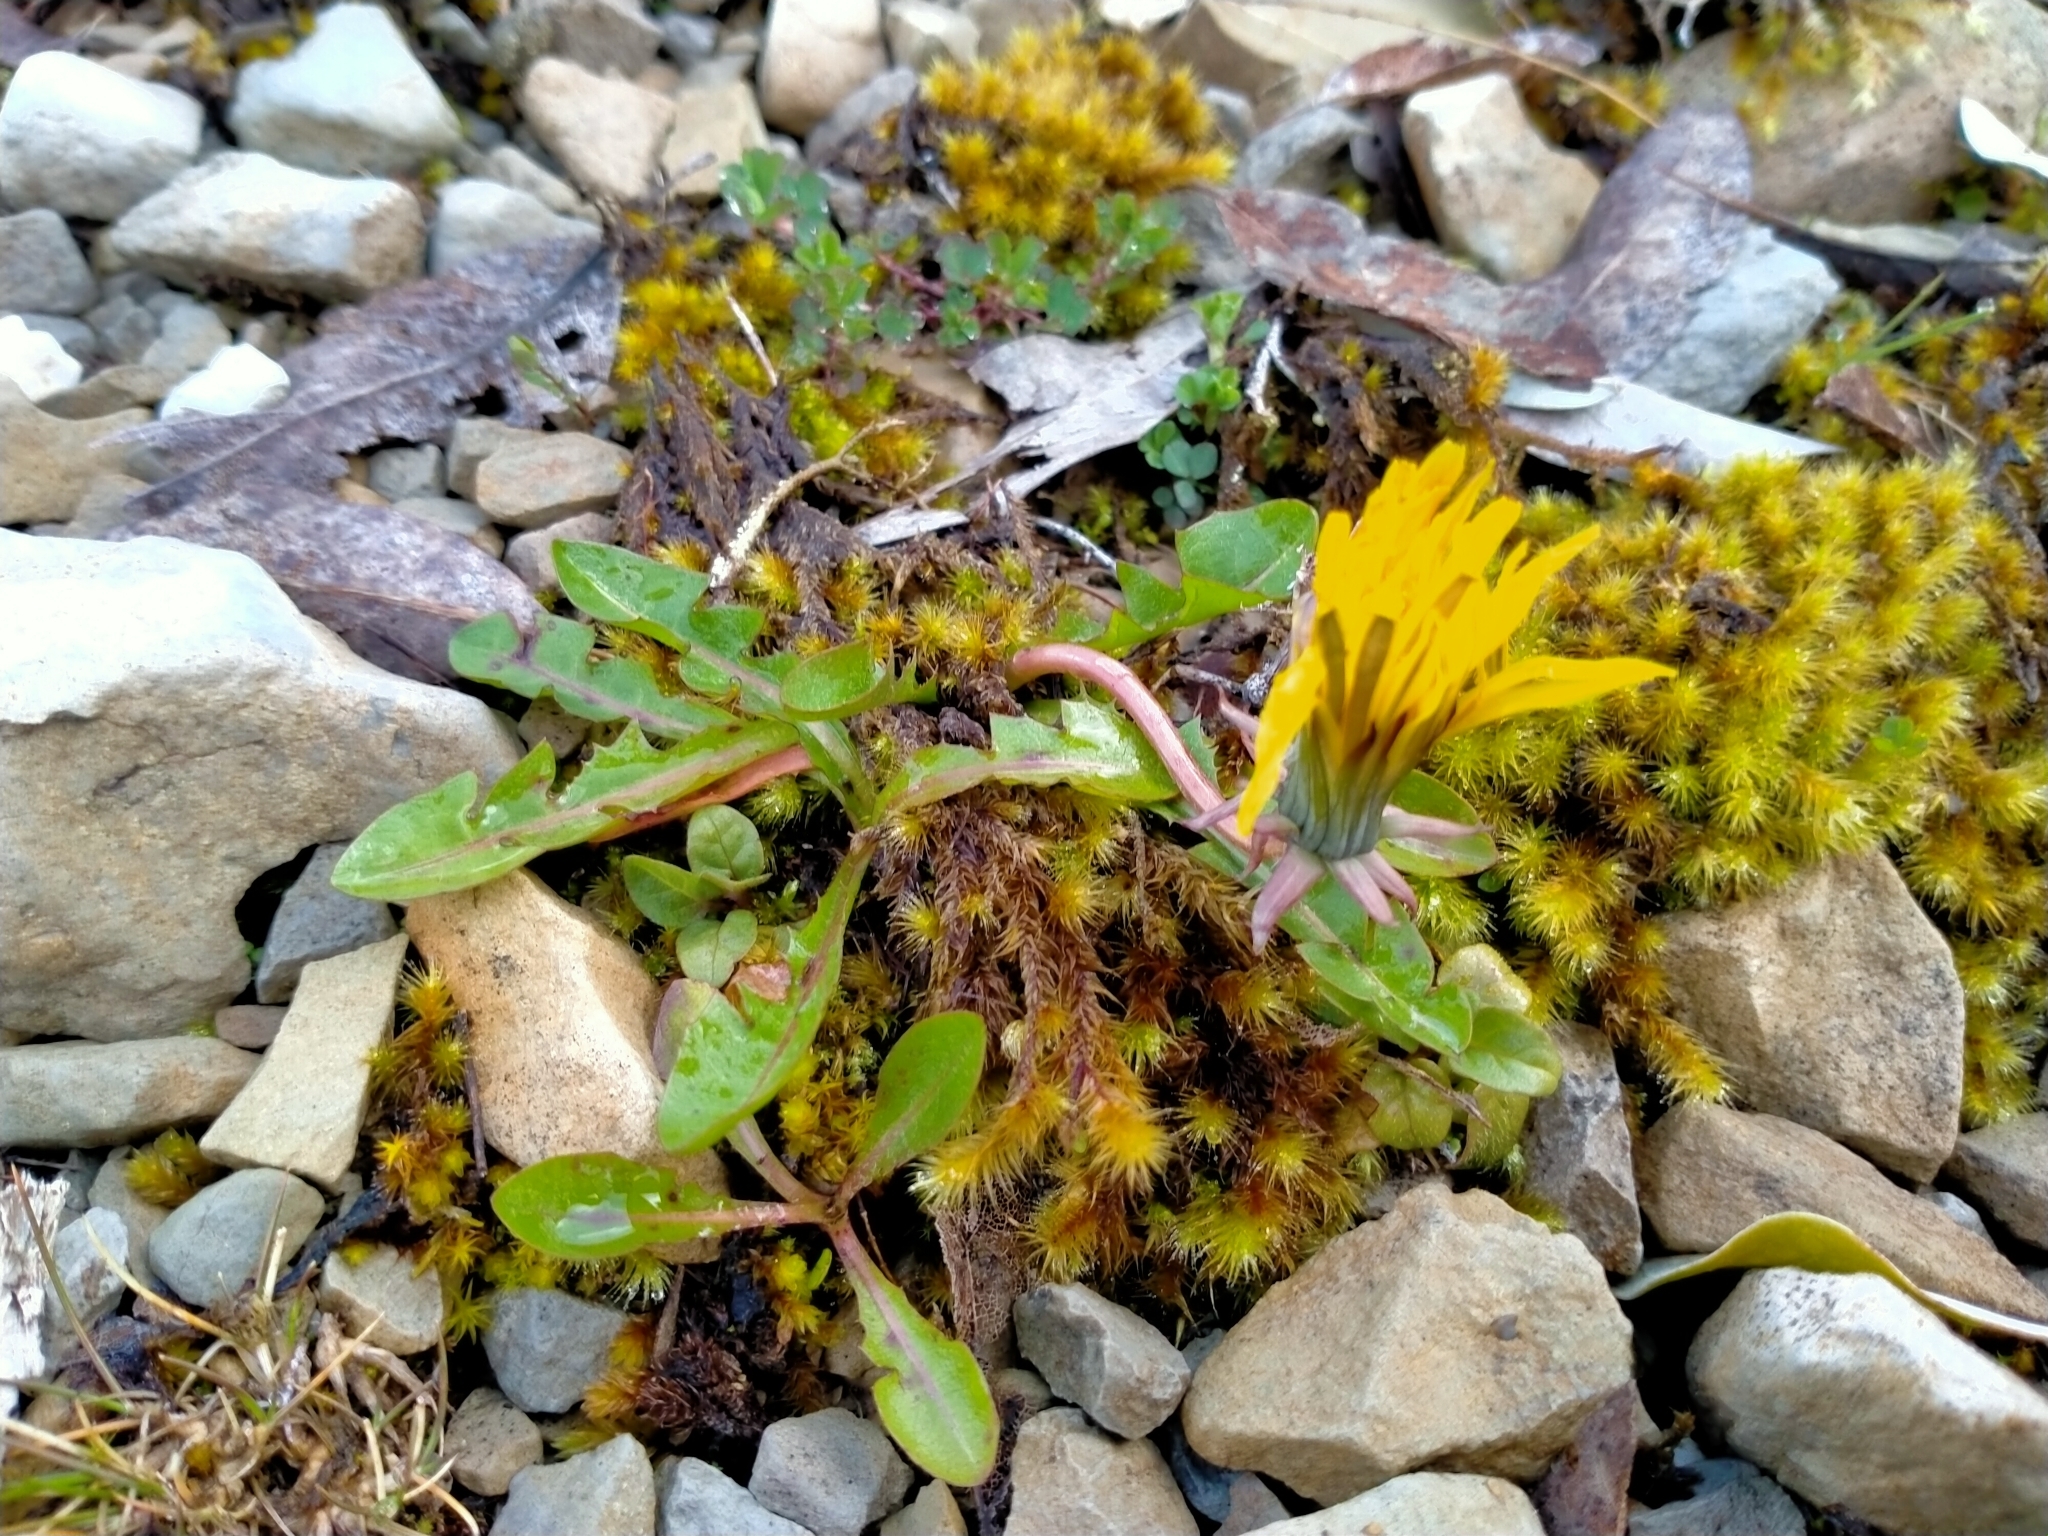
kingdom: Plantae
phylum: Tracheophyta
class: Magnoliopsida
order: Asterales
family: Asteraceae
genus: Taraxacum
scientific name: Taraxacum officinale
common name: Common dandelion
